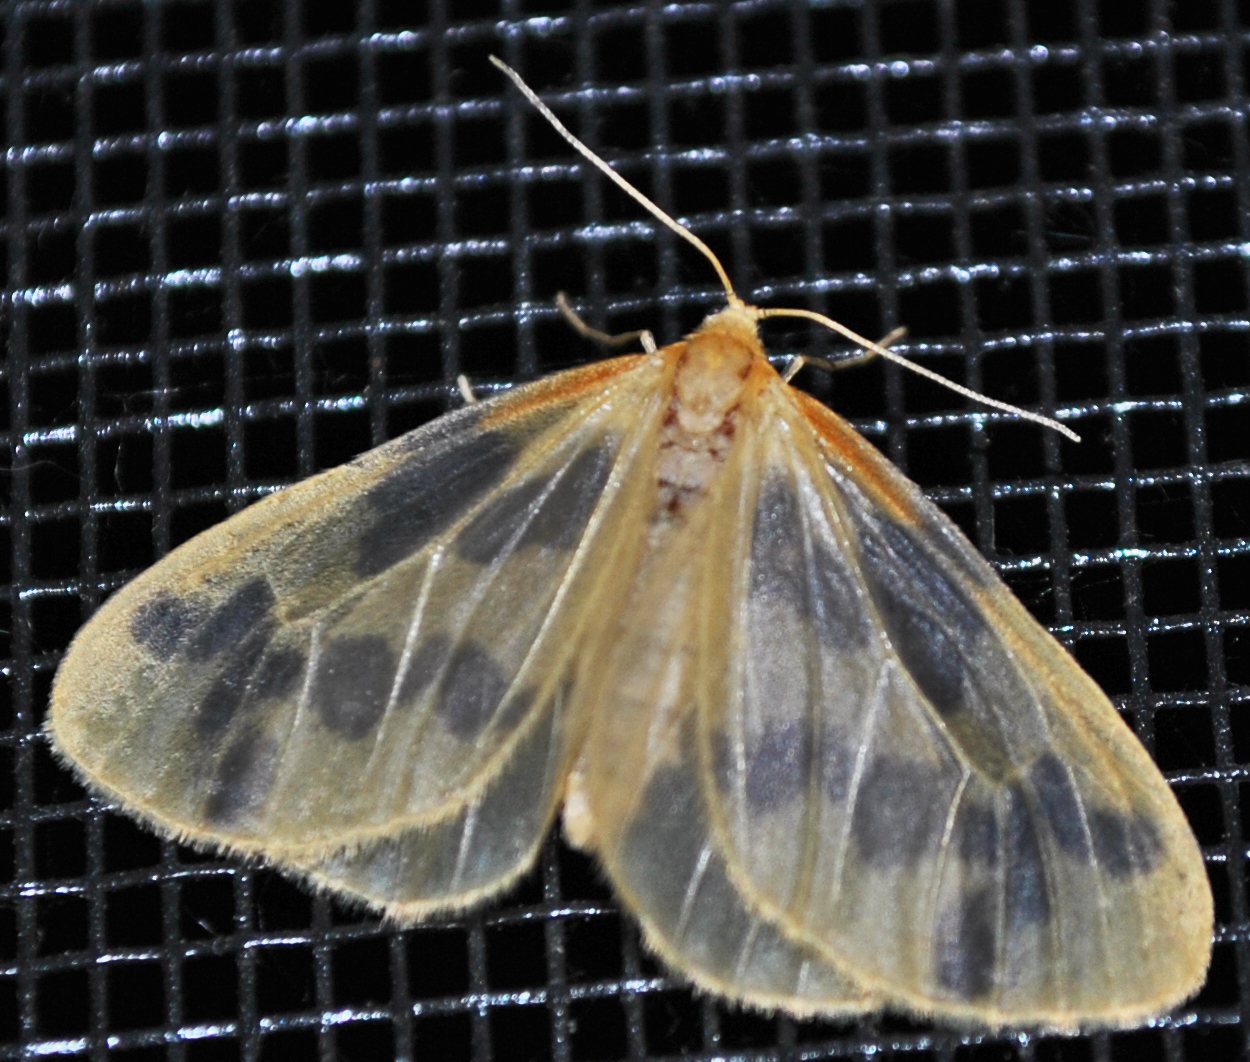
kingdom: Animalia
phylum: Arthropoda
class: Insecta
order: Lepidoptera
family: Geometridae
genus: Eubaphe
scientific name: Eubaphe mendica
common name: Beggar
